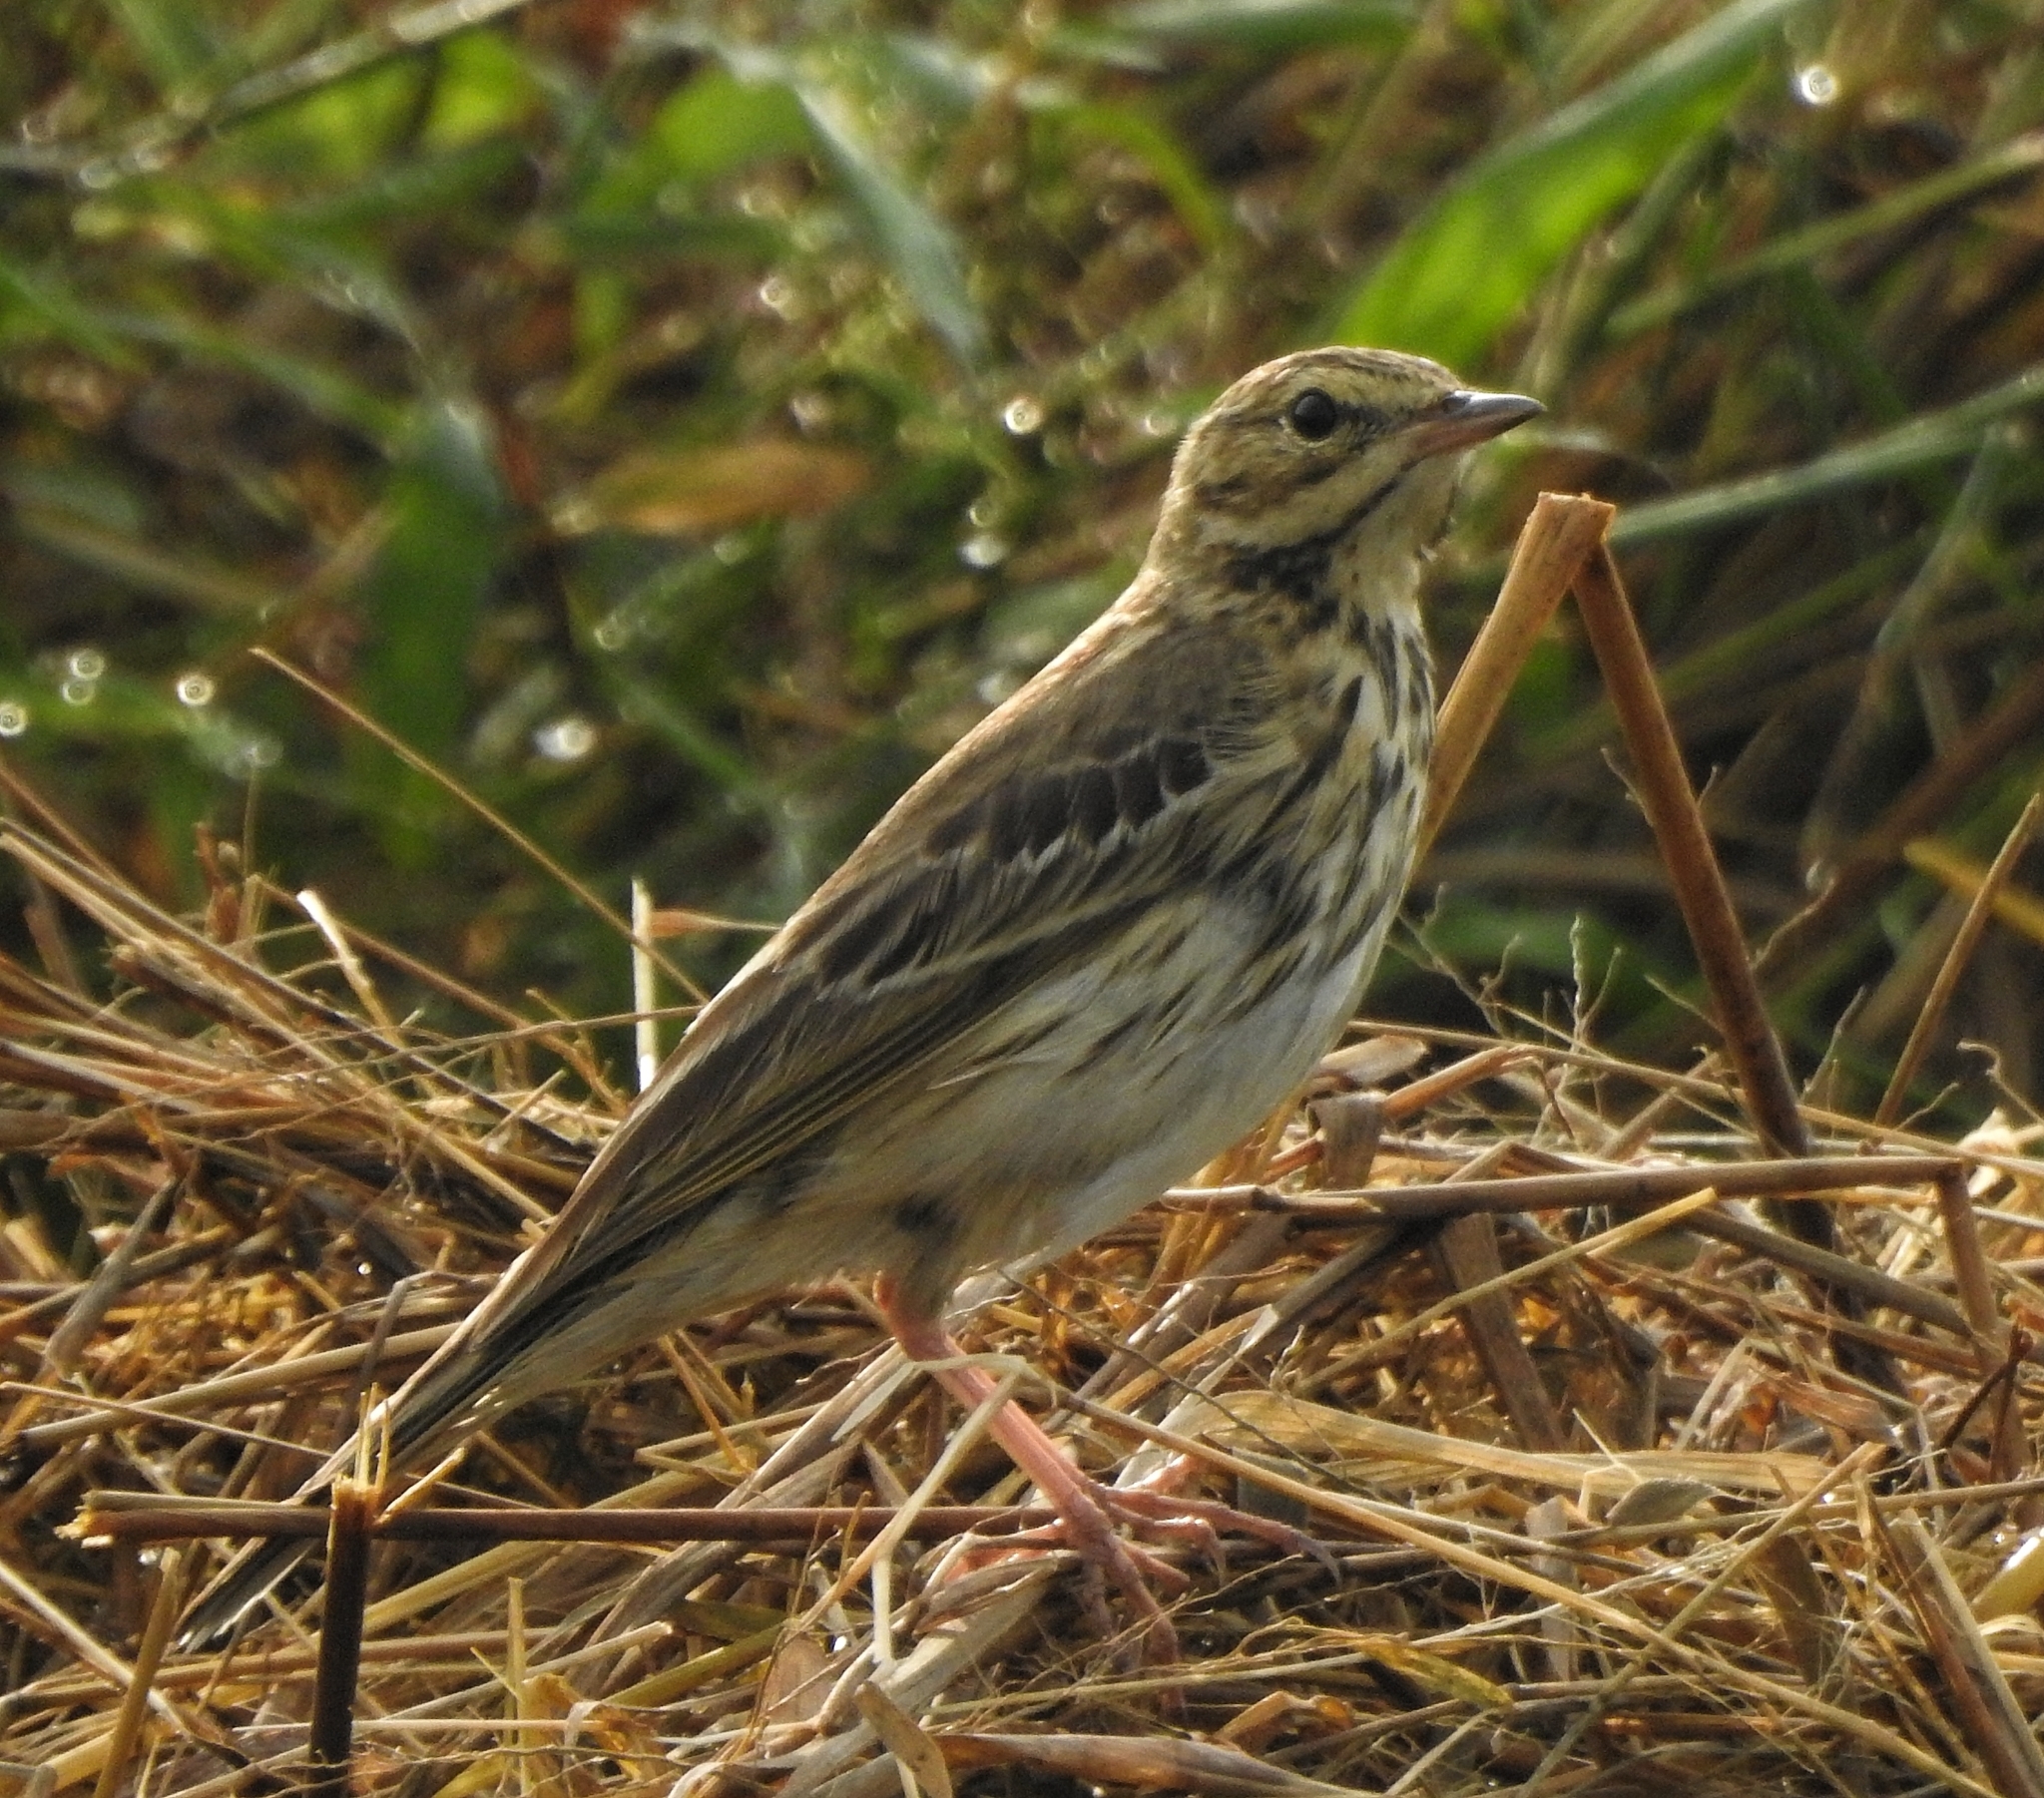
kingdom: Animalia
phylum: Chordata
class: Aves
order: Passeriformes
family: Motacillidae
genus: Anthus
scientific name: Anthus trivialis
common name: Tree pipit
